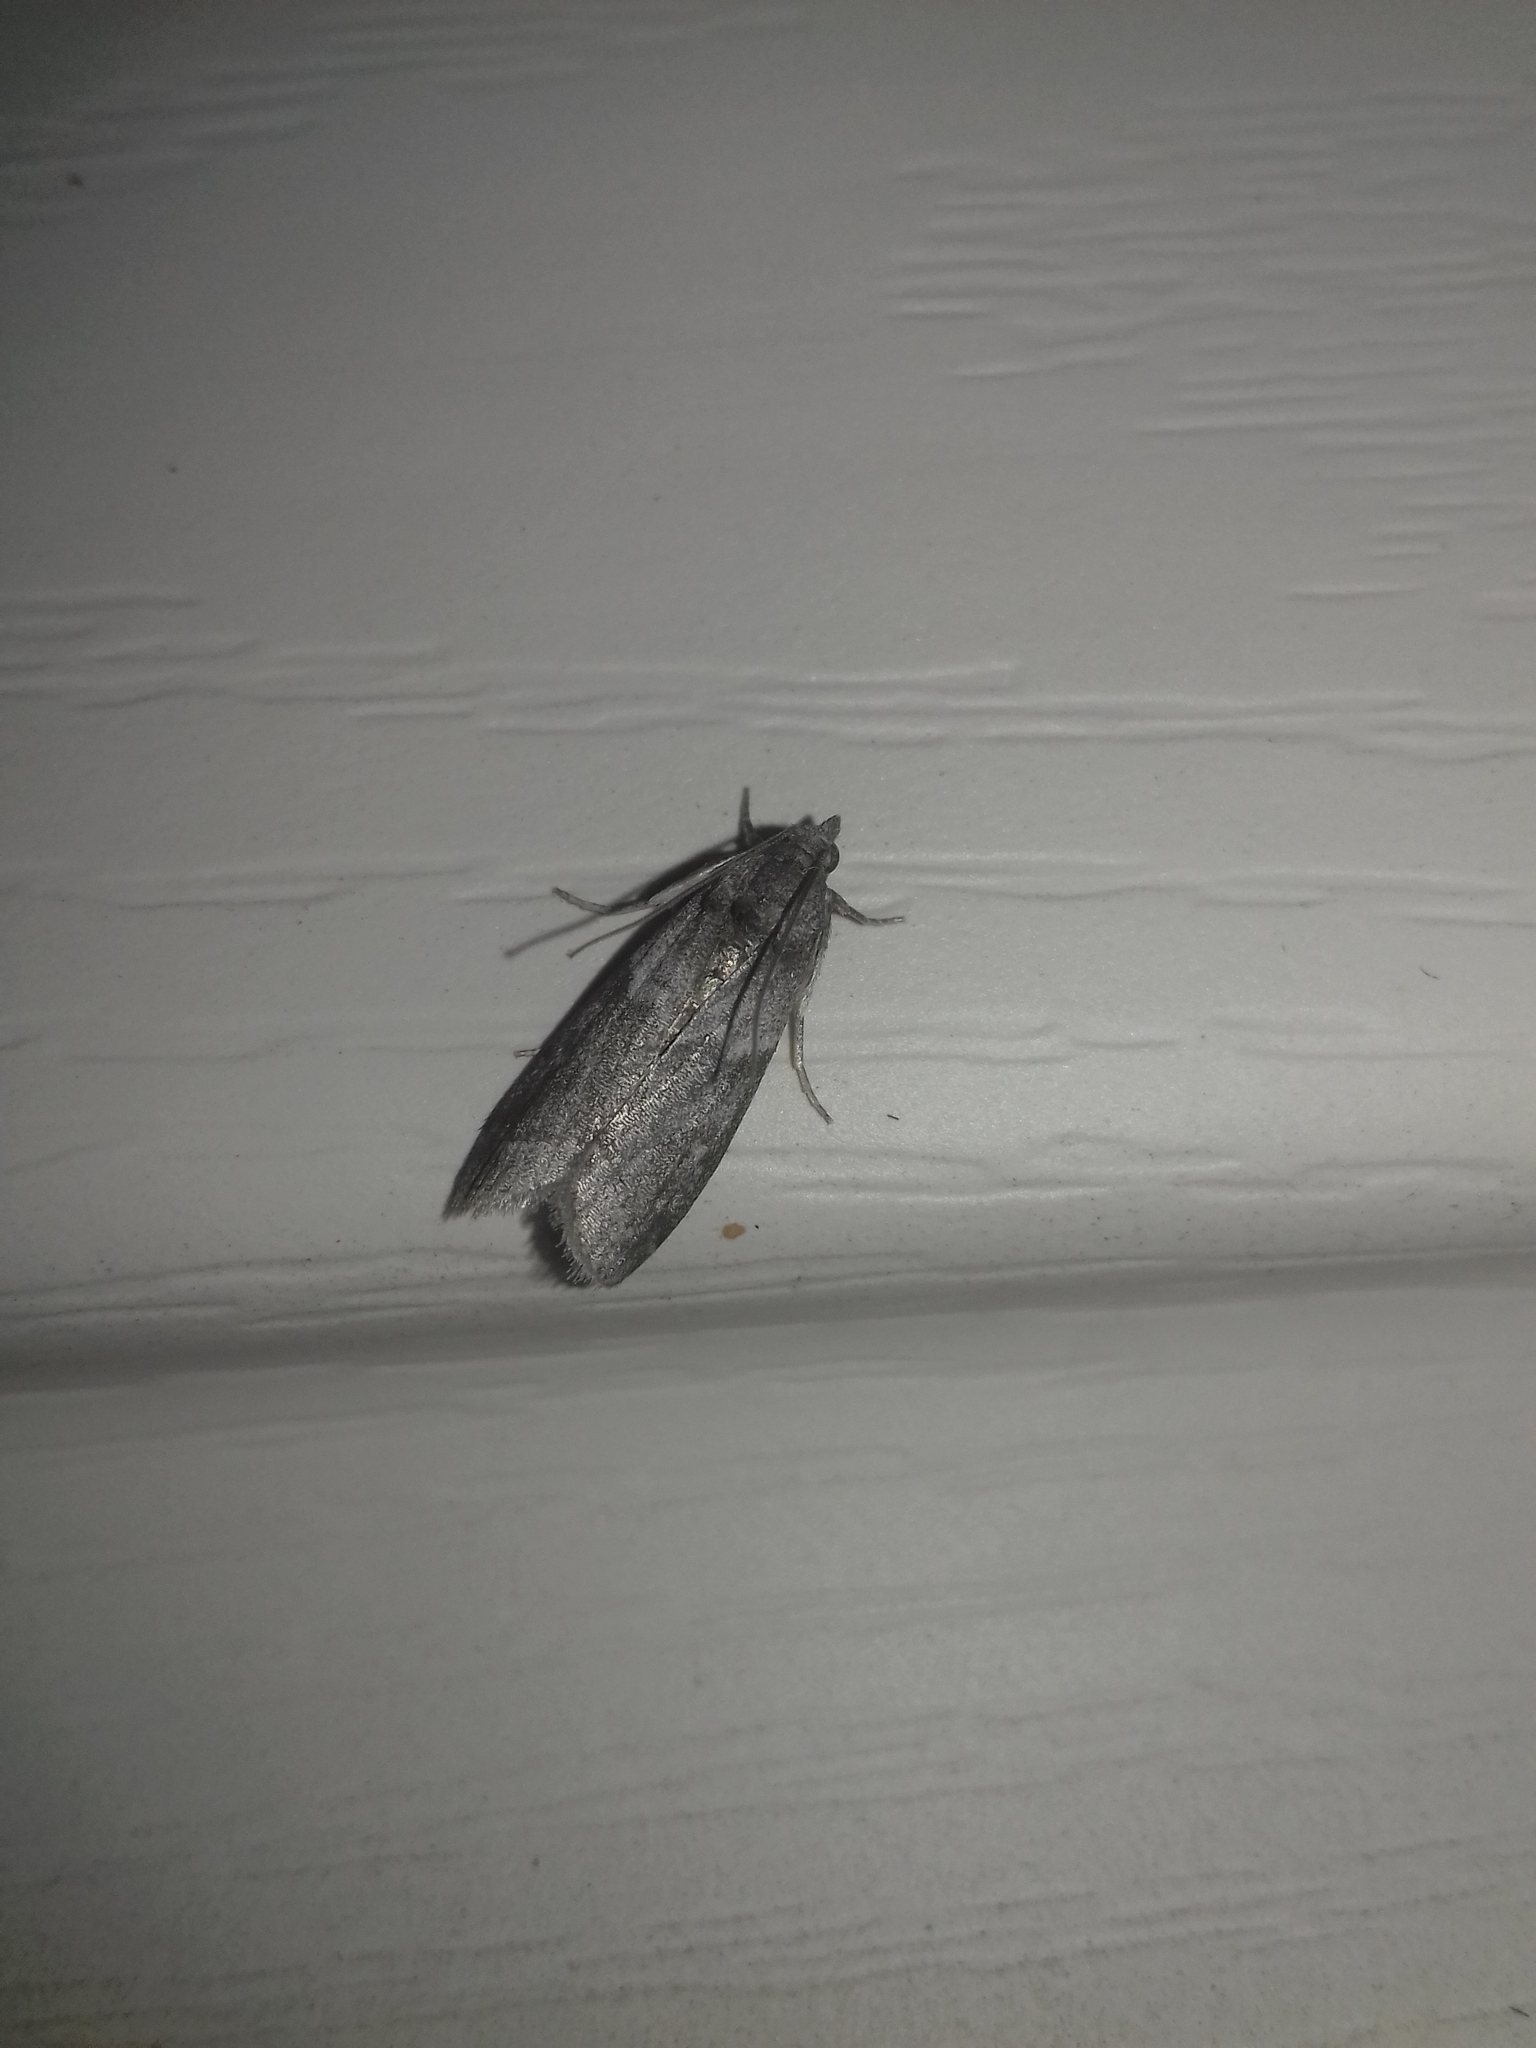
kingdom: Animalia
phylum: Arthropoda
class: Insecta
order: Lepidoptera
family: Pyralidae
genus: Ectomyelois
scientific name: Ectomyelois ceratoniae
